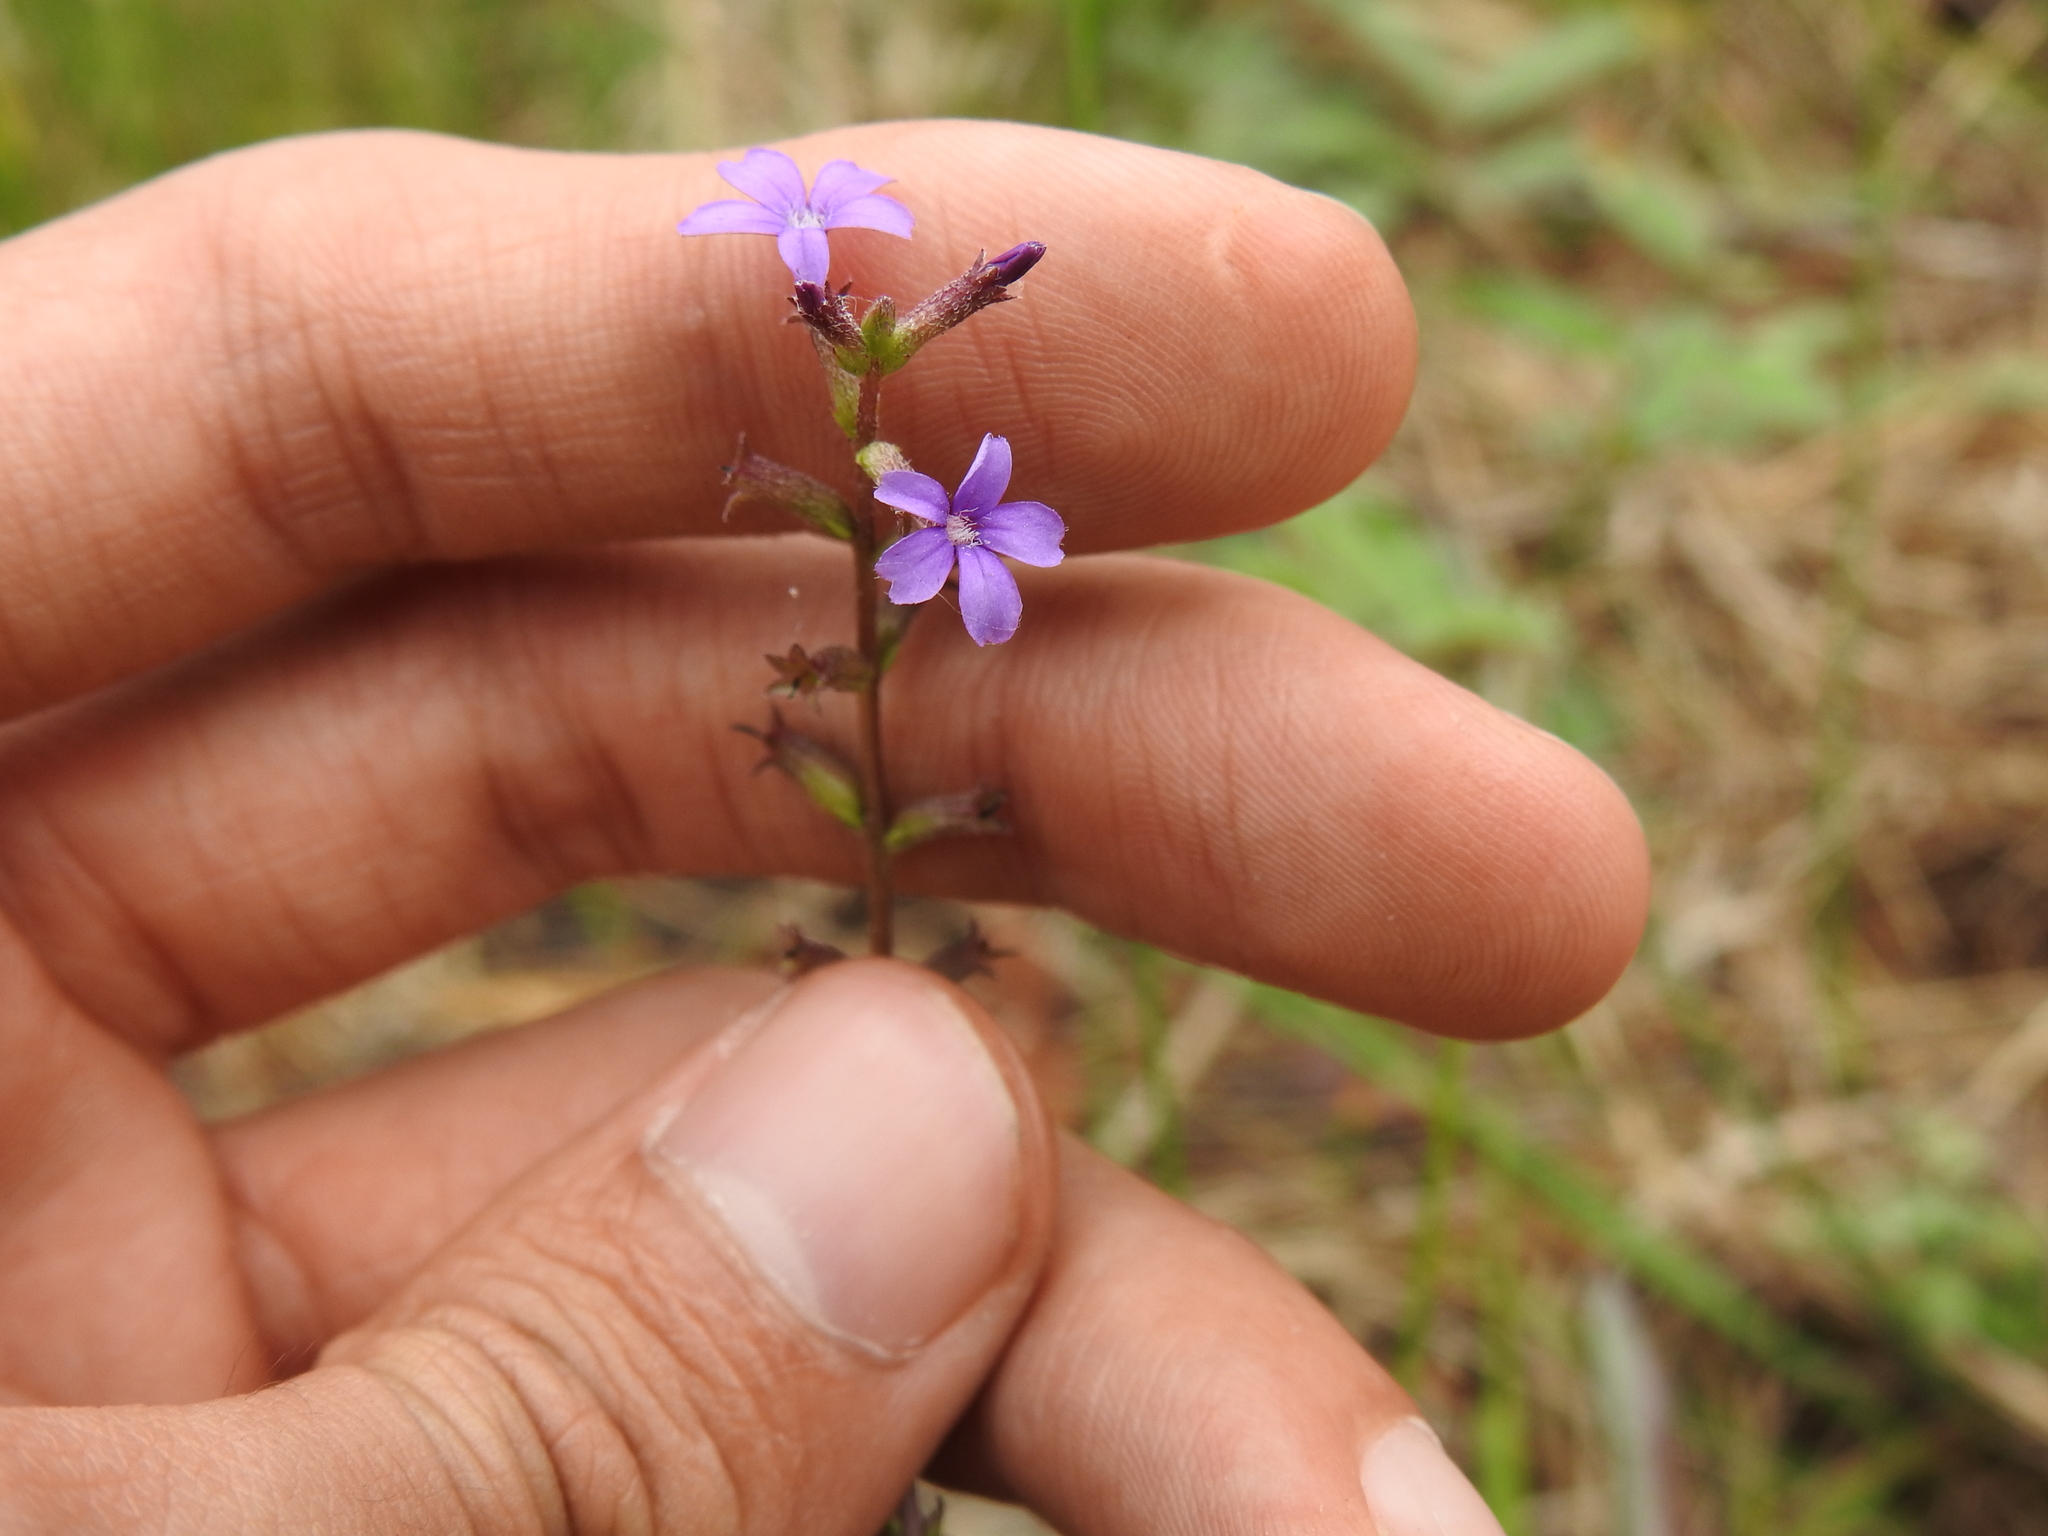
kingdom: Plantae
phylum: Tracheophyta
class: Magnoliopsida
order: Lamiales
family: Orobanchaceae
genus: Buchnera
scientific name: Buchnera floridana
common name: Florida bluehearts
